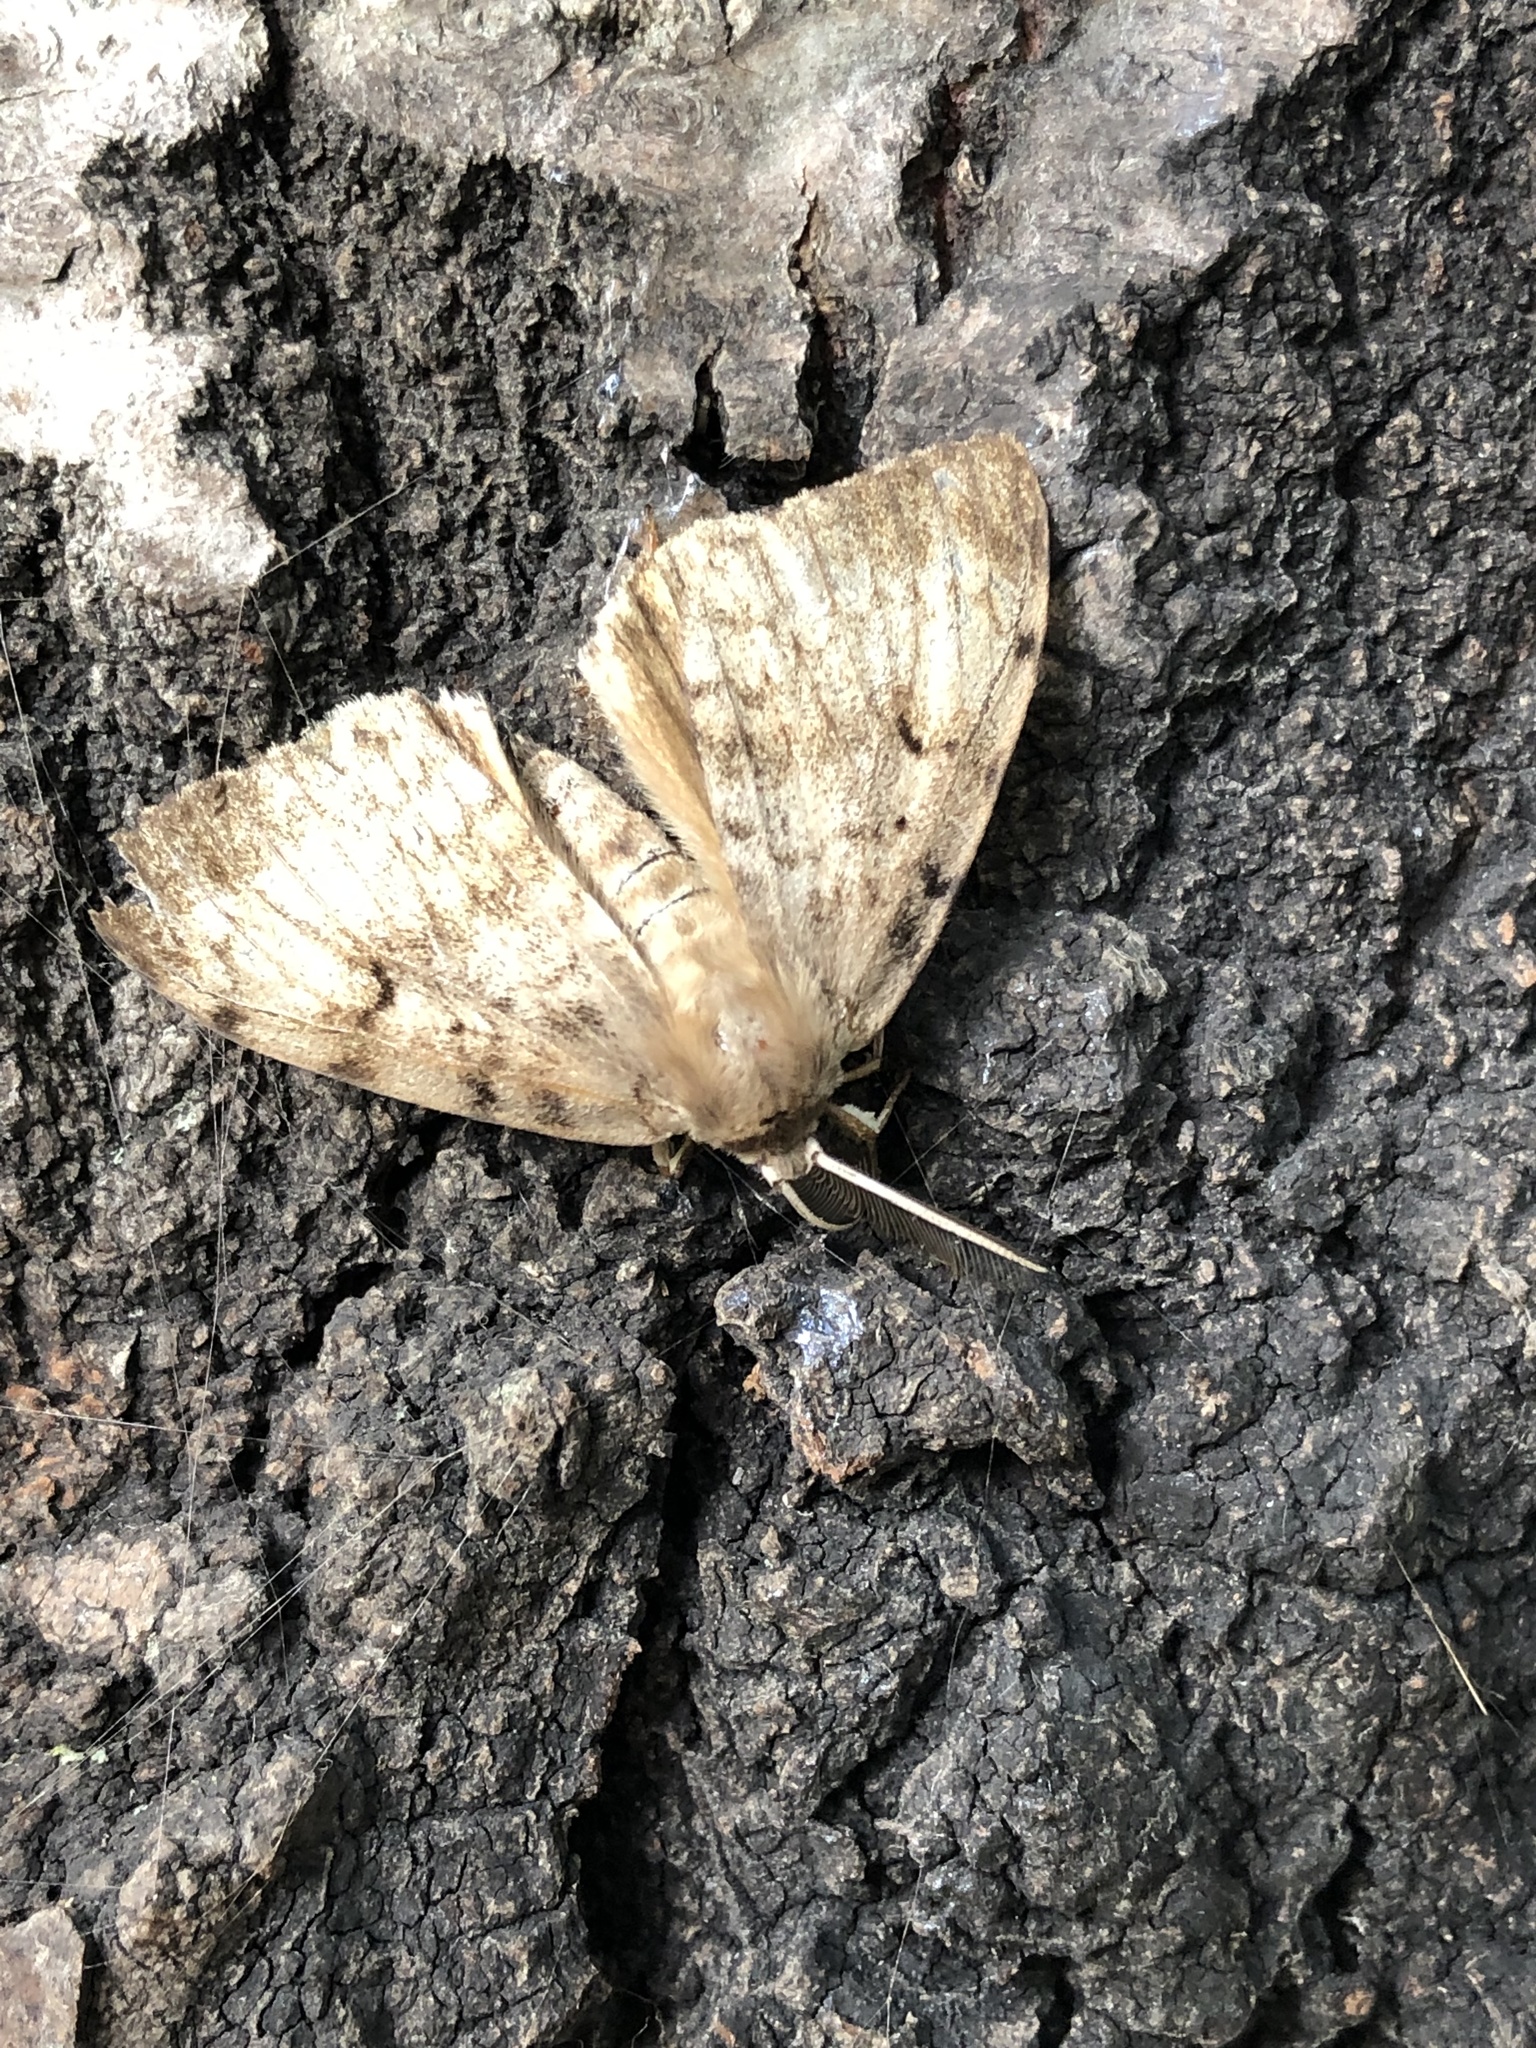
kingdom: Animalia
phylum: Arthropoda
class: Insecta
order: Lepidoptera
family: Erebidae
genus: Lymantria
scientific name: Lymantria dispar
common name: Gypsy moth
